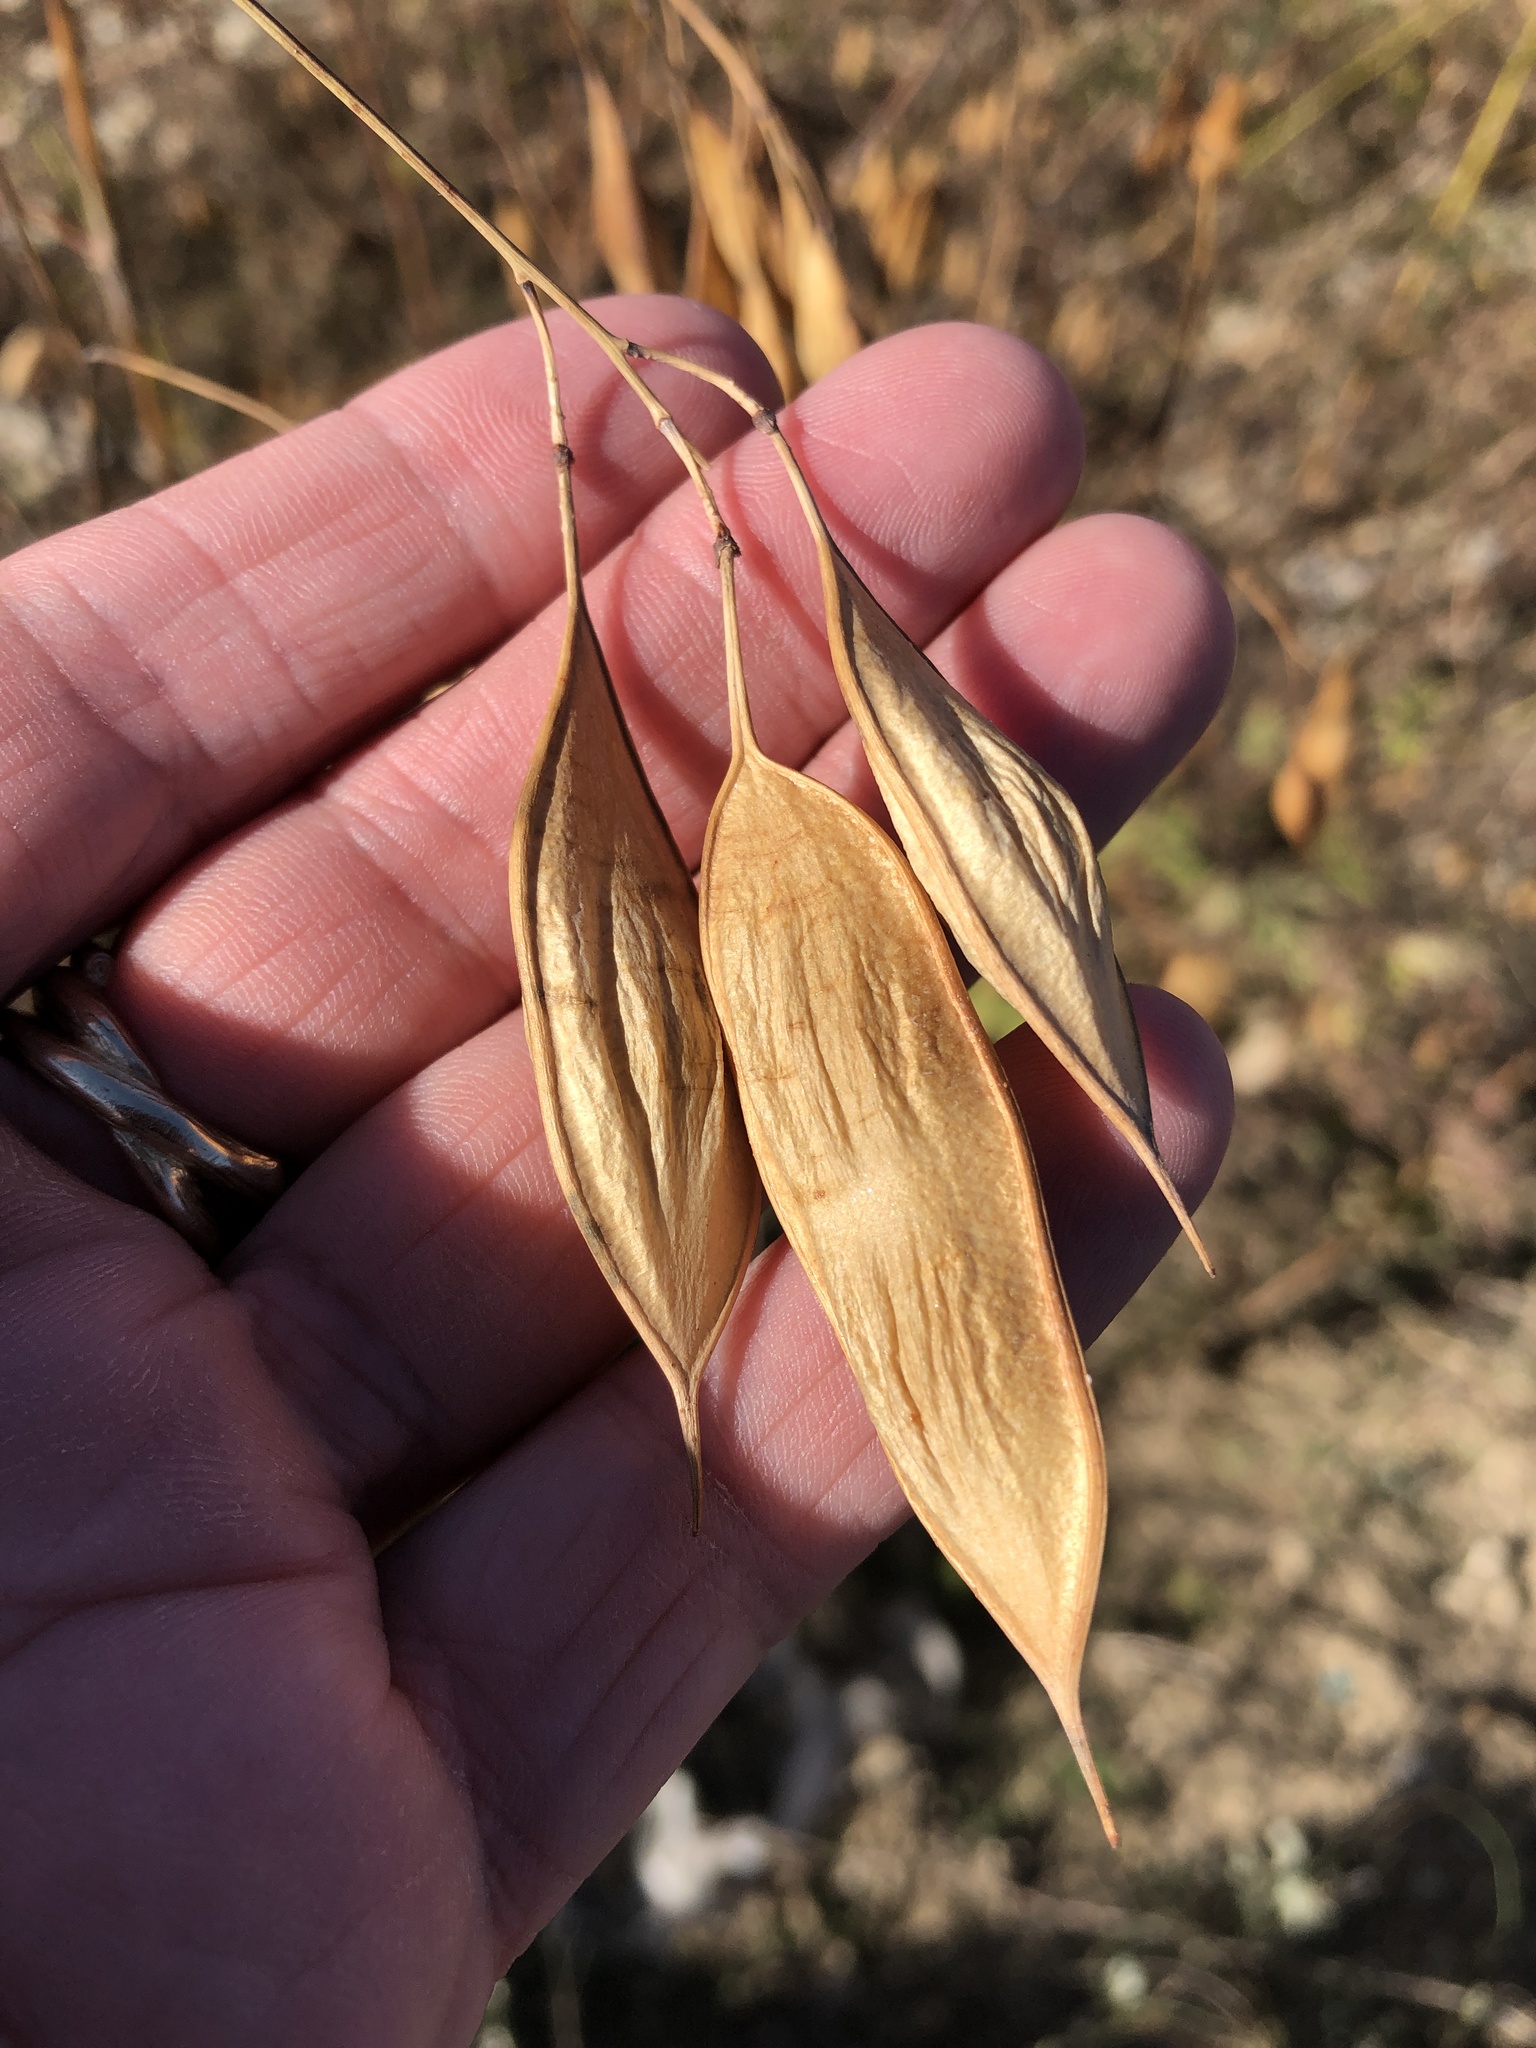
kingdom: Plantae
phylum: Tracheophyta
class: Magnoliopsida
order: Fabales
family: Fabaceae
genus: Sesbania
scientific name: Sesbania vesicaria
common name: Bagpod
